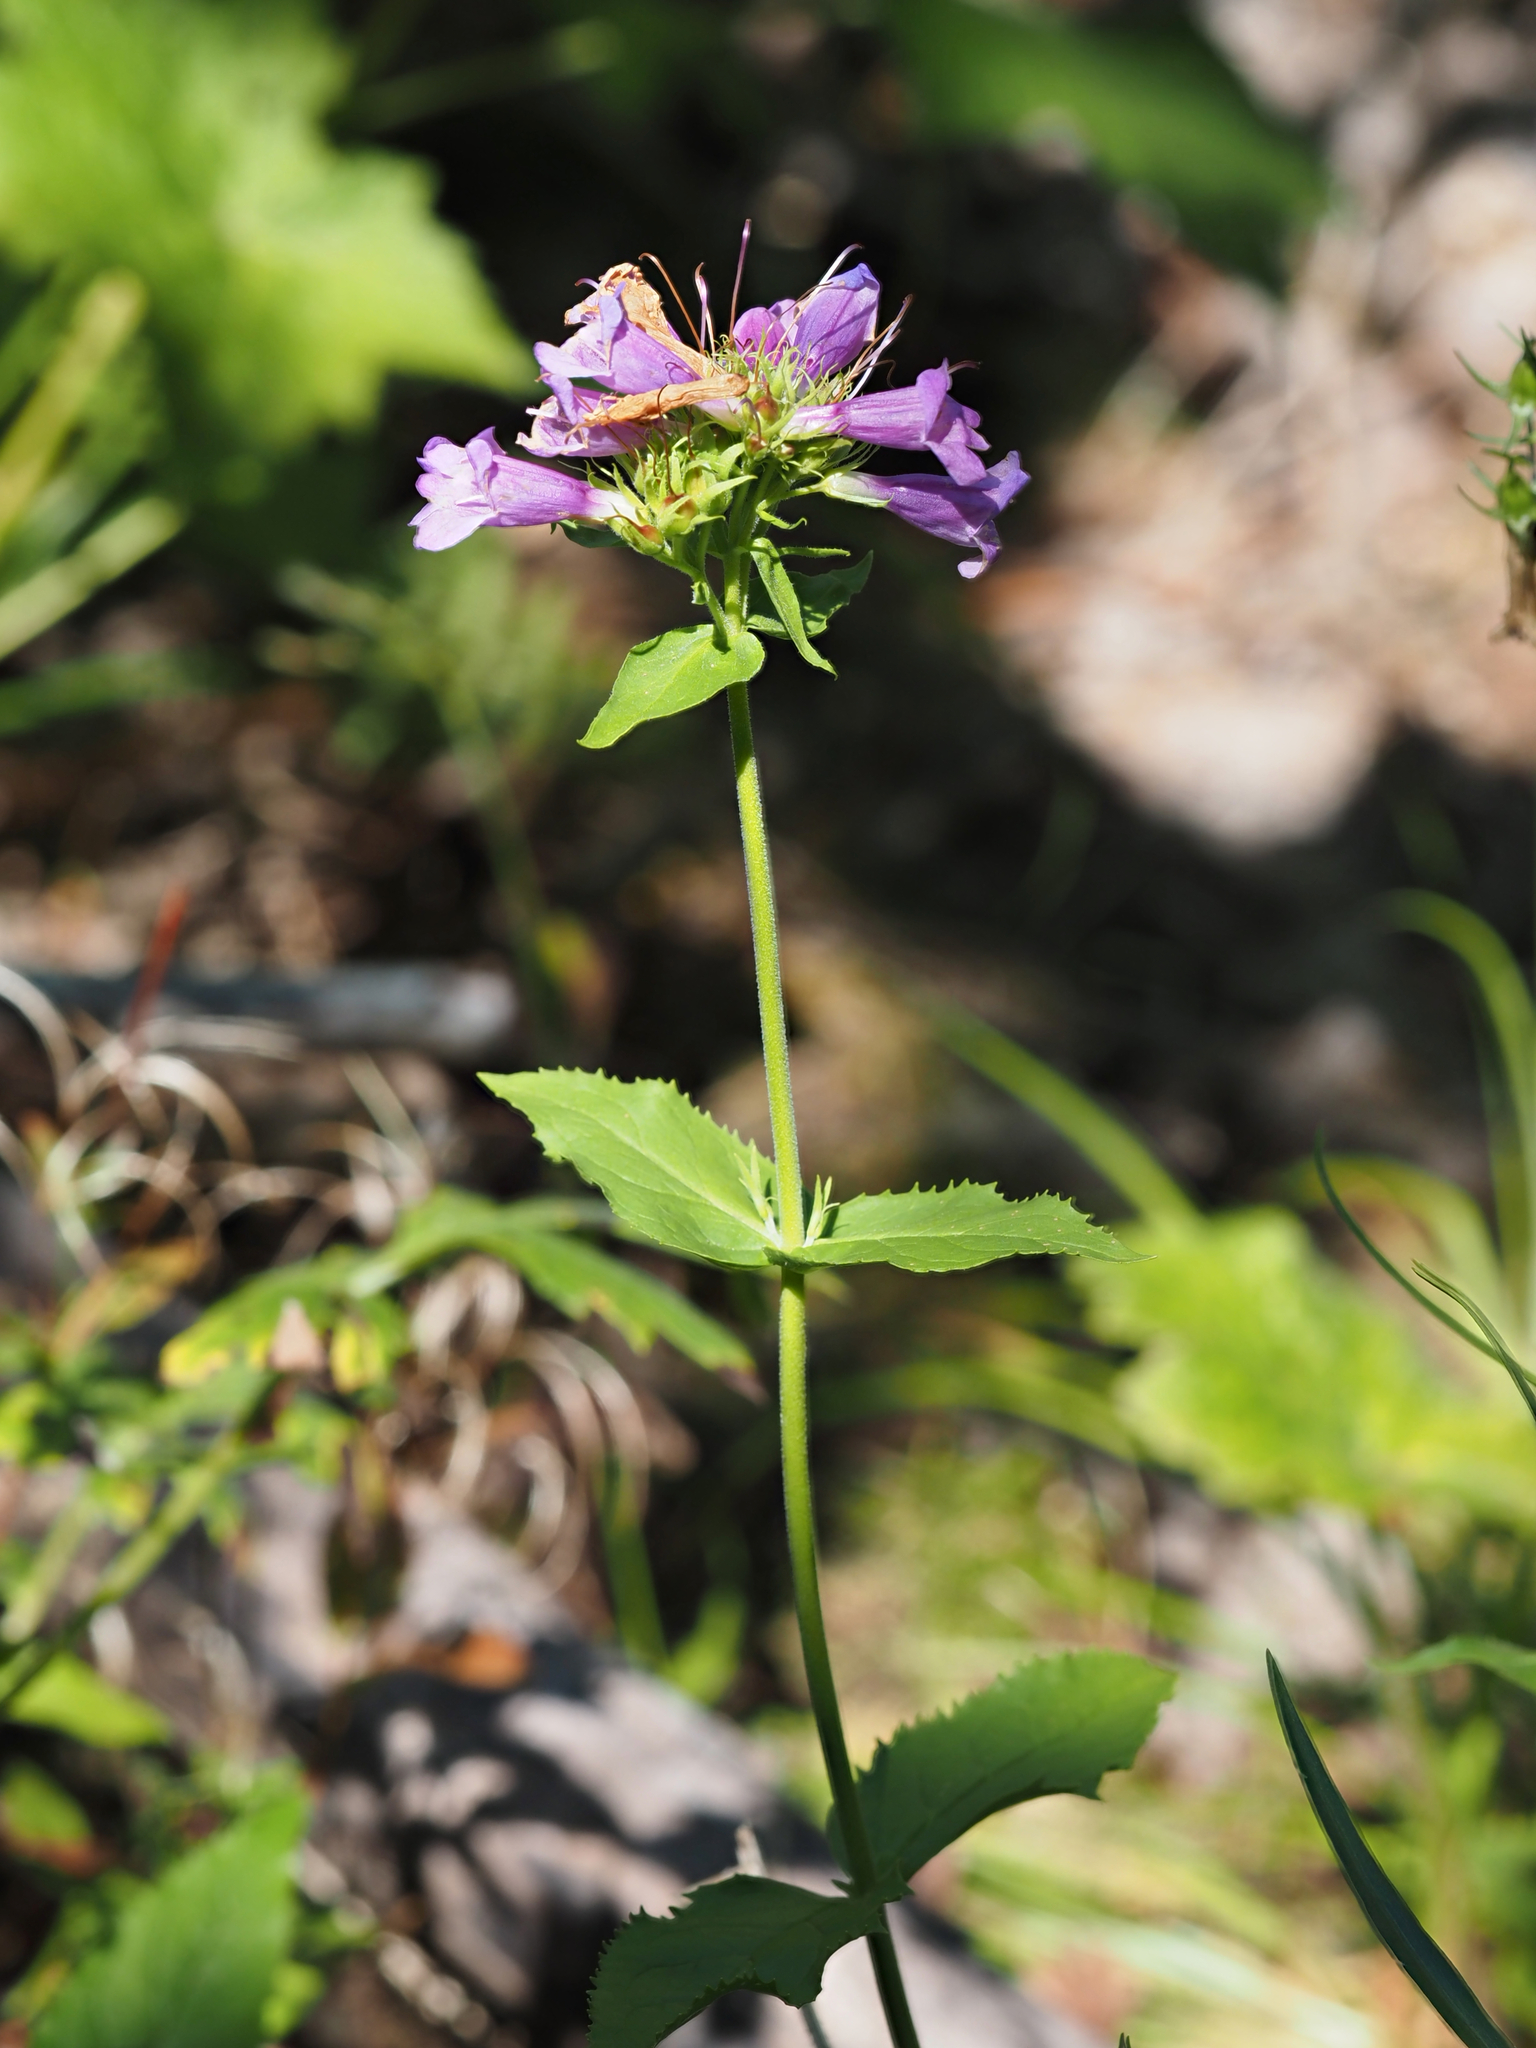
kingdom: Plantae
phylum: Tracheophyta
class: Magnoliopsida
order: Lamiales
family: Plantaginaceae
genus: Penstemon
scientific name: Penstemon serrulatus
